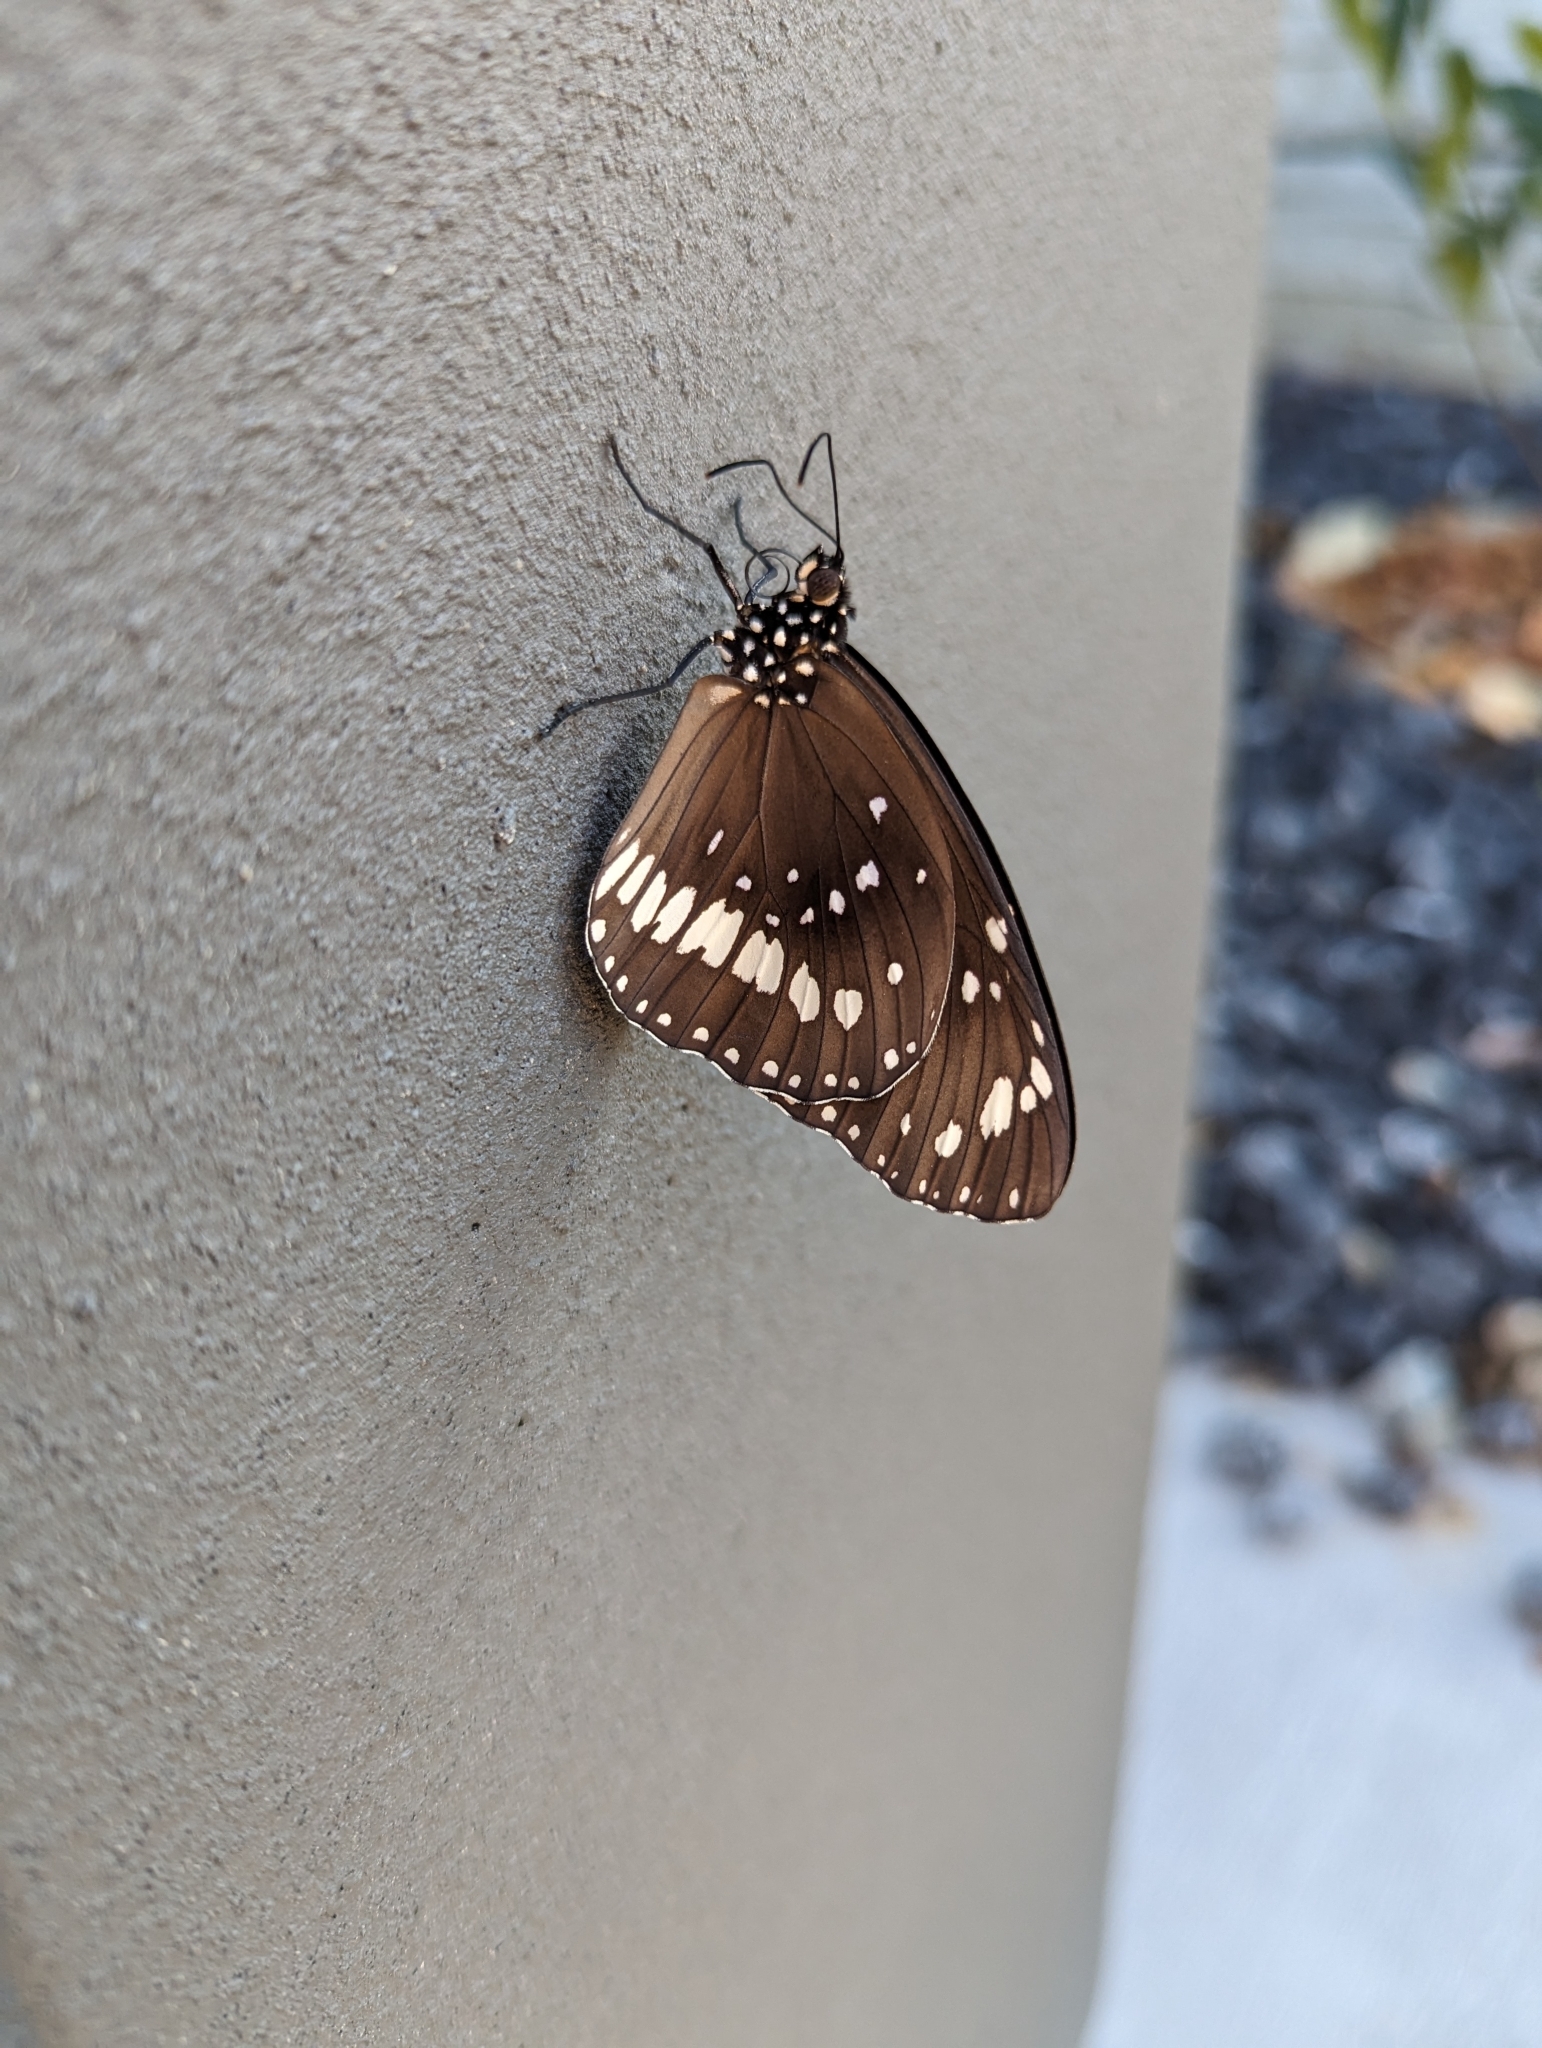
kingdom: Animalia
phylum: Arthropoda
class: Insecta
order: Lepidoptera
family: Nymphalidae
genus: Euploea
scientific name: Euploea core
